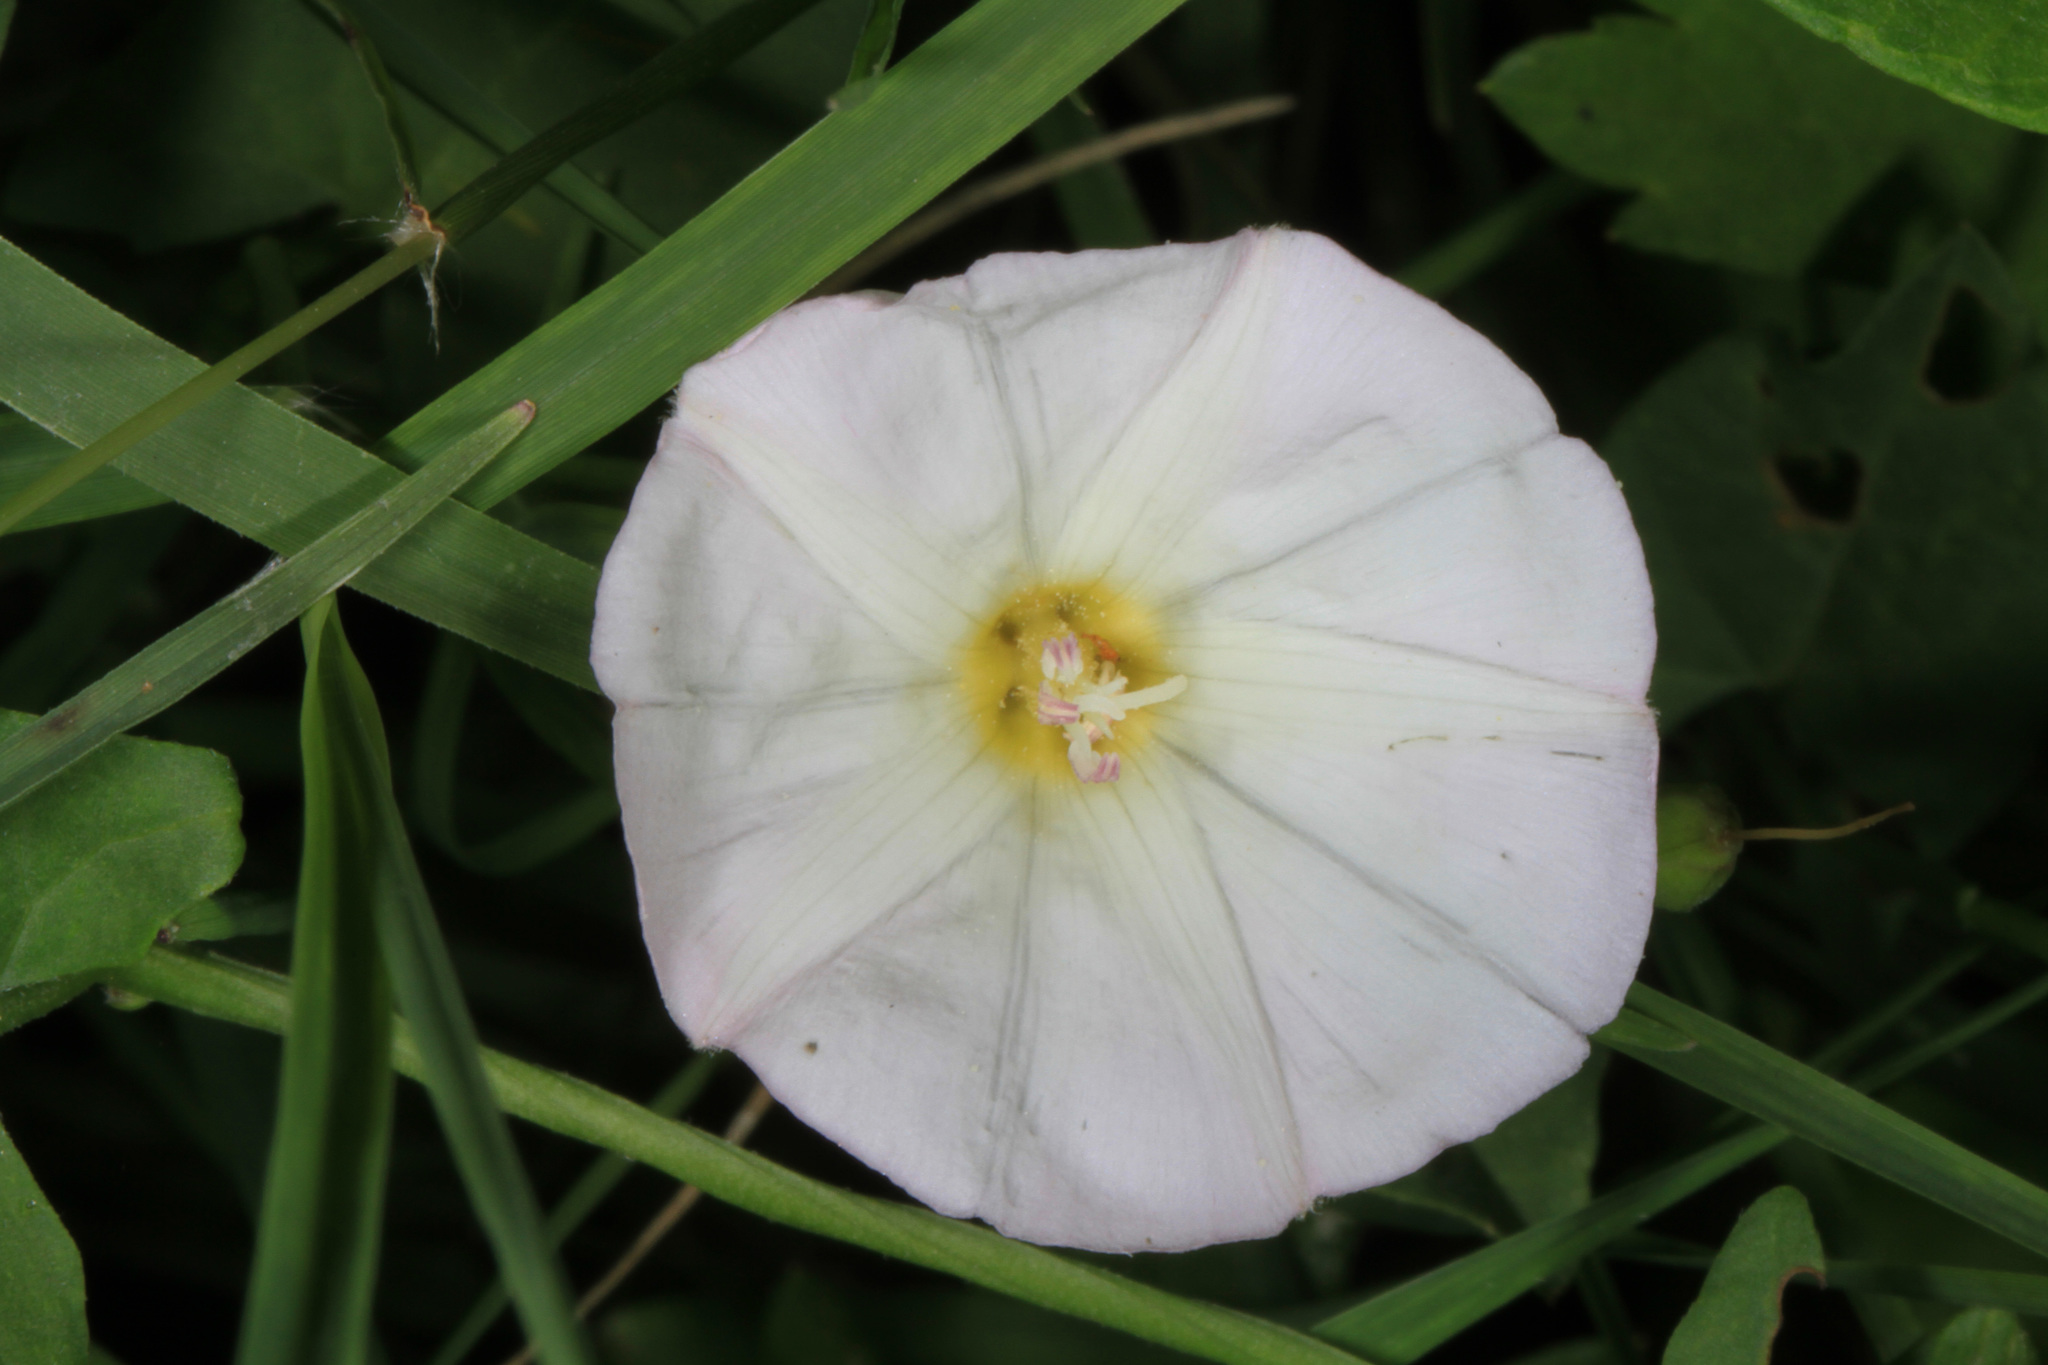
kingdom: Plantae
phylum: Tracheophyta
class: Magnoliopsida
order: Solanales
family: Convolvulaceae
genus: Ipomoea
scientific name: Ipomoea lacunosa
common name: White morning-glory
